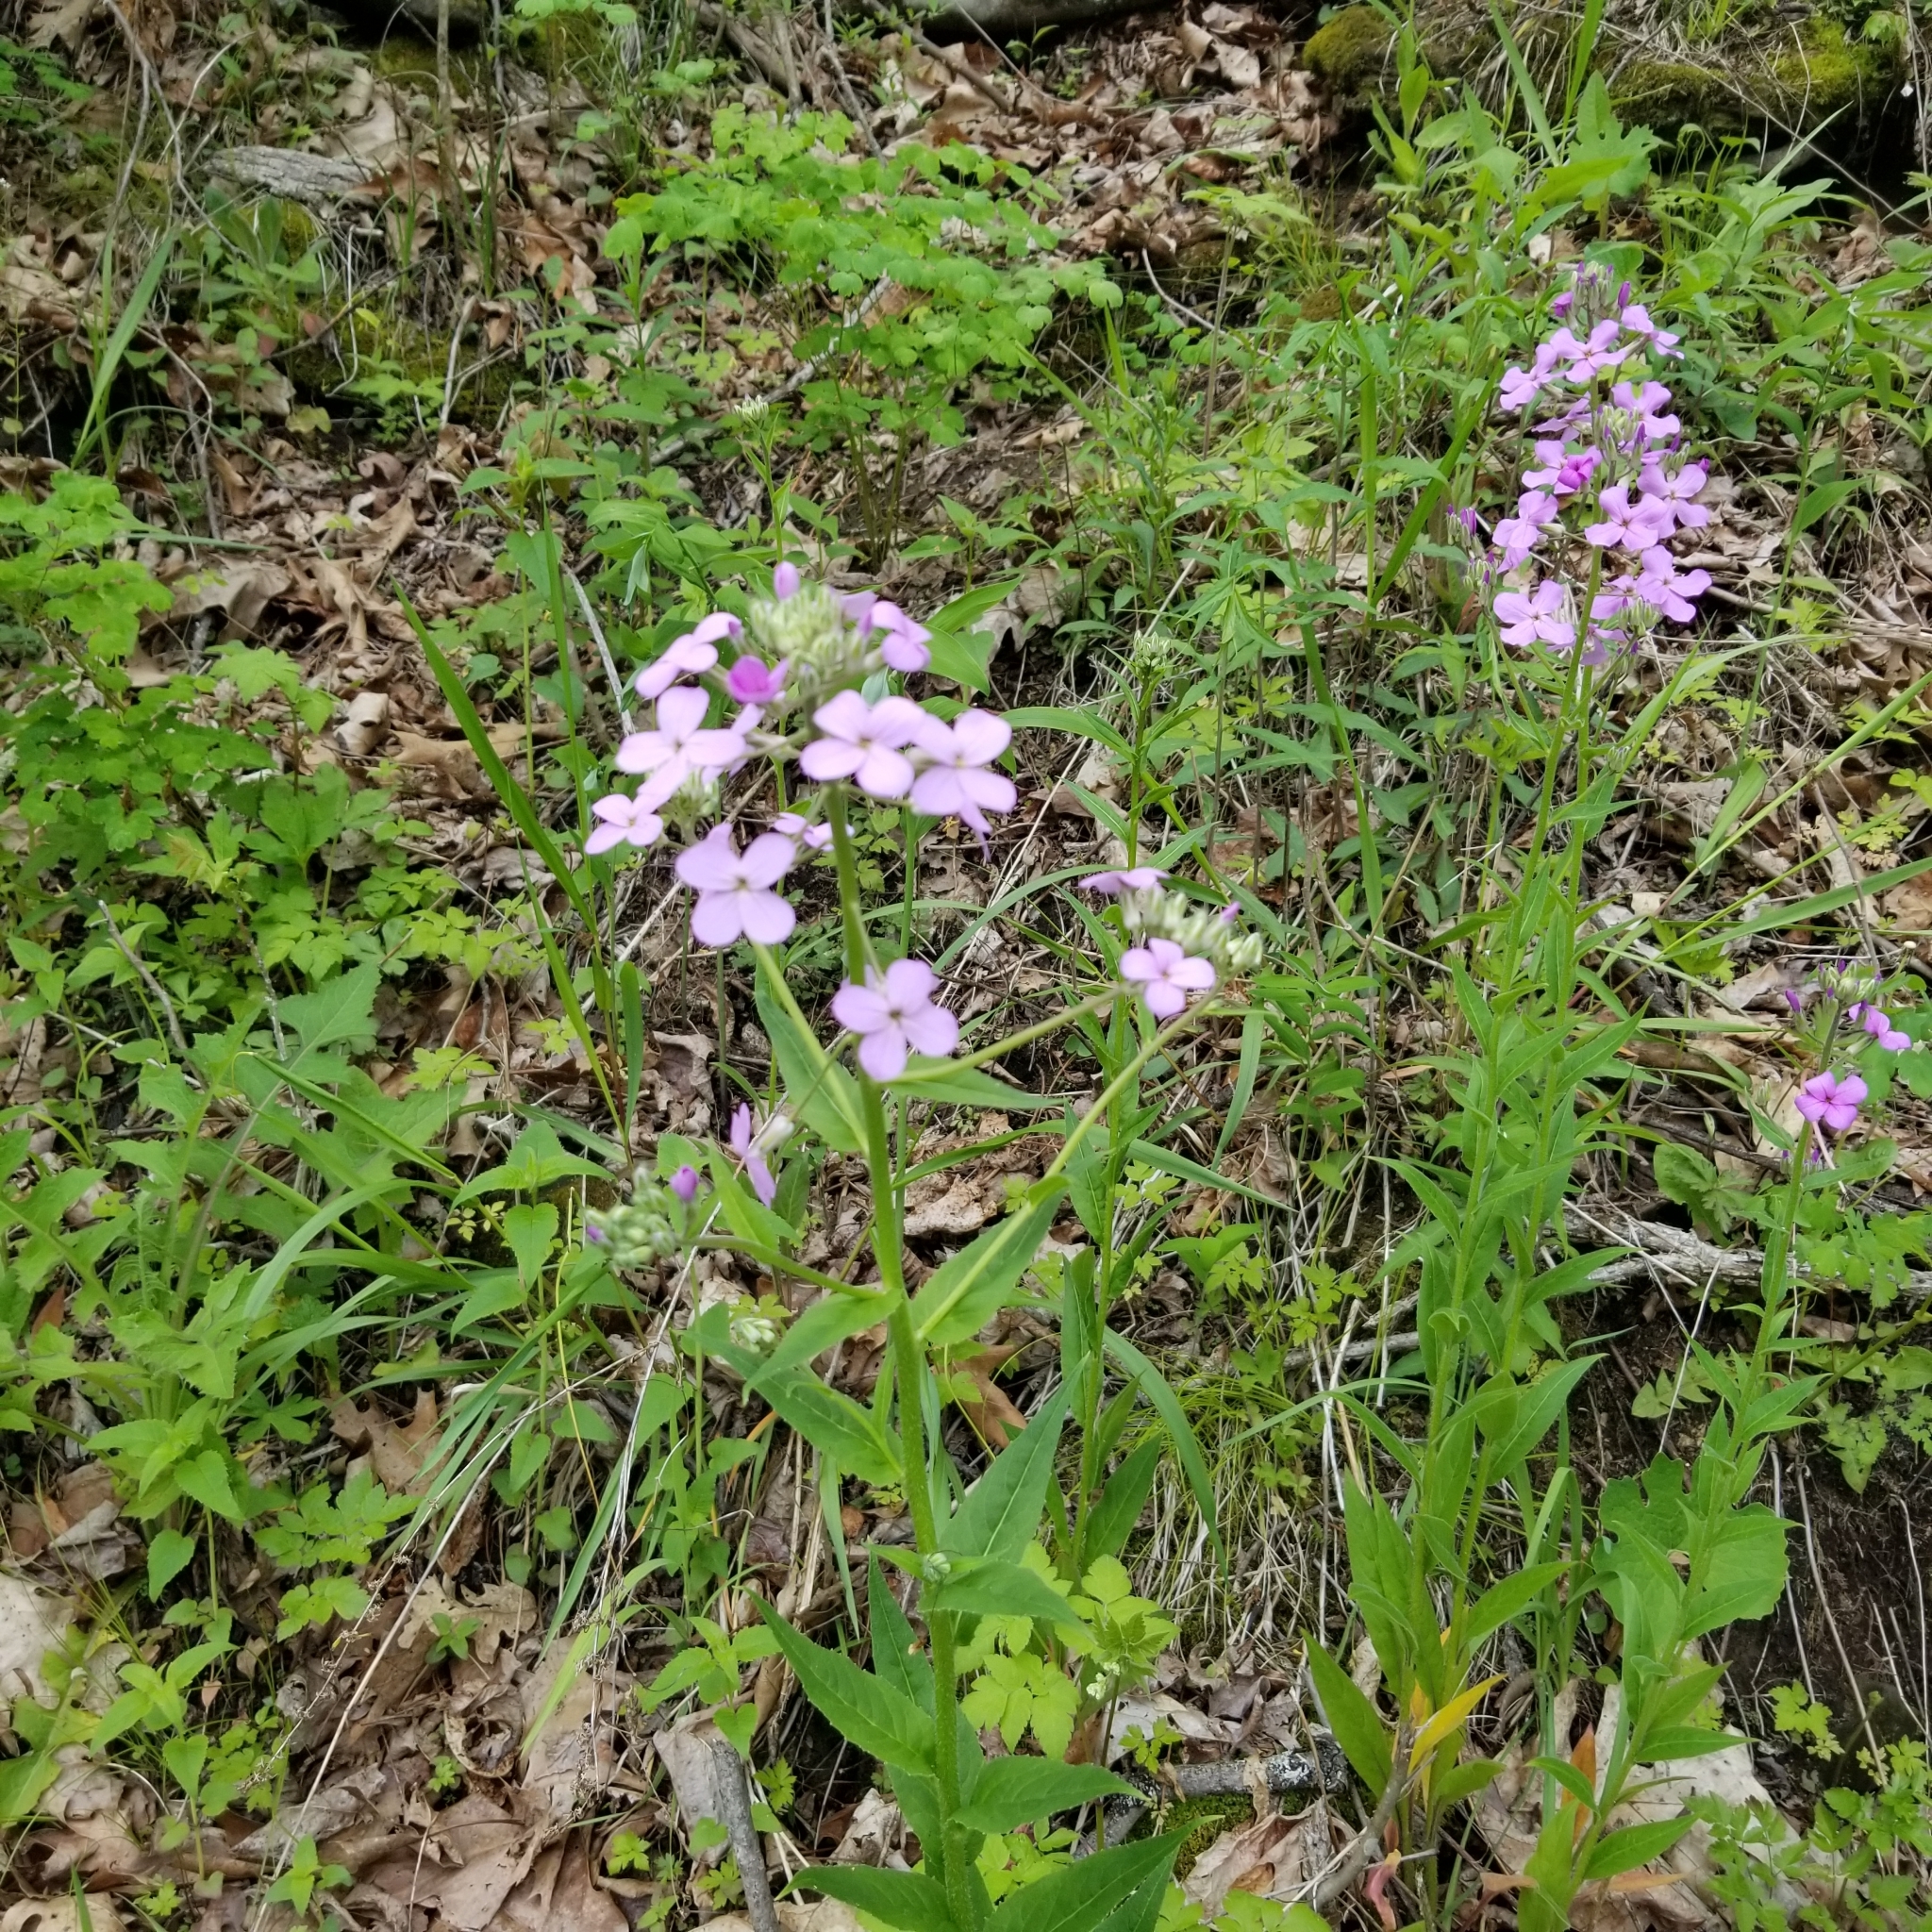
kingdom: Plantae
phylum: Tracheophyta
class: Magnoliopsida
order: Brassicales
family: Brassicaceae
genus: Hesperis
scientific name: Hesperis matronalis
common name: Dame's-violet
